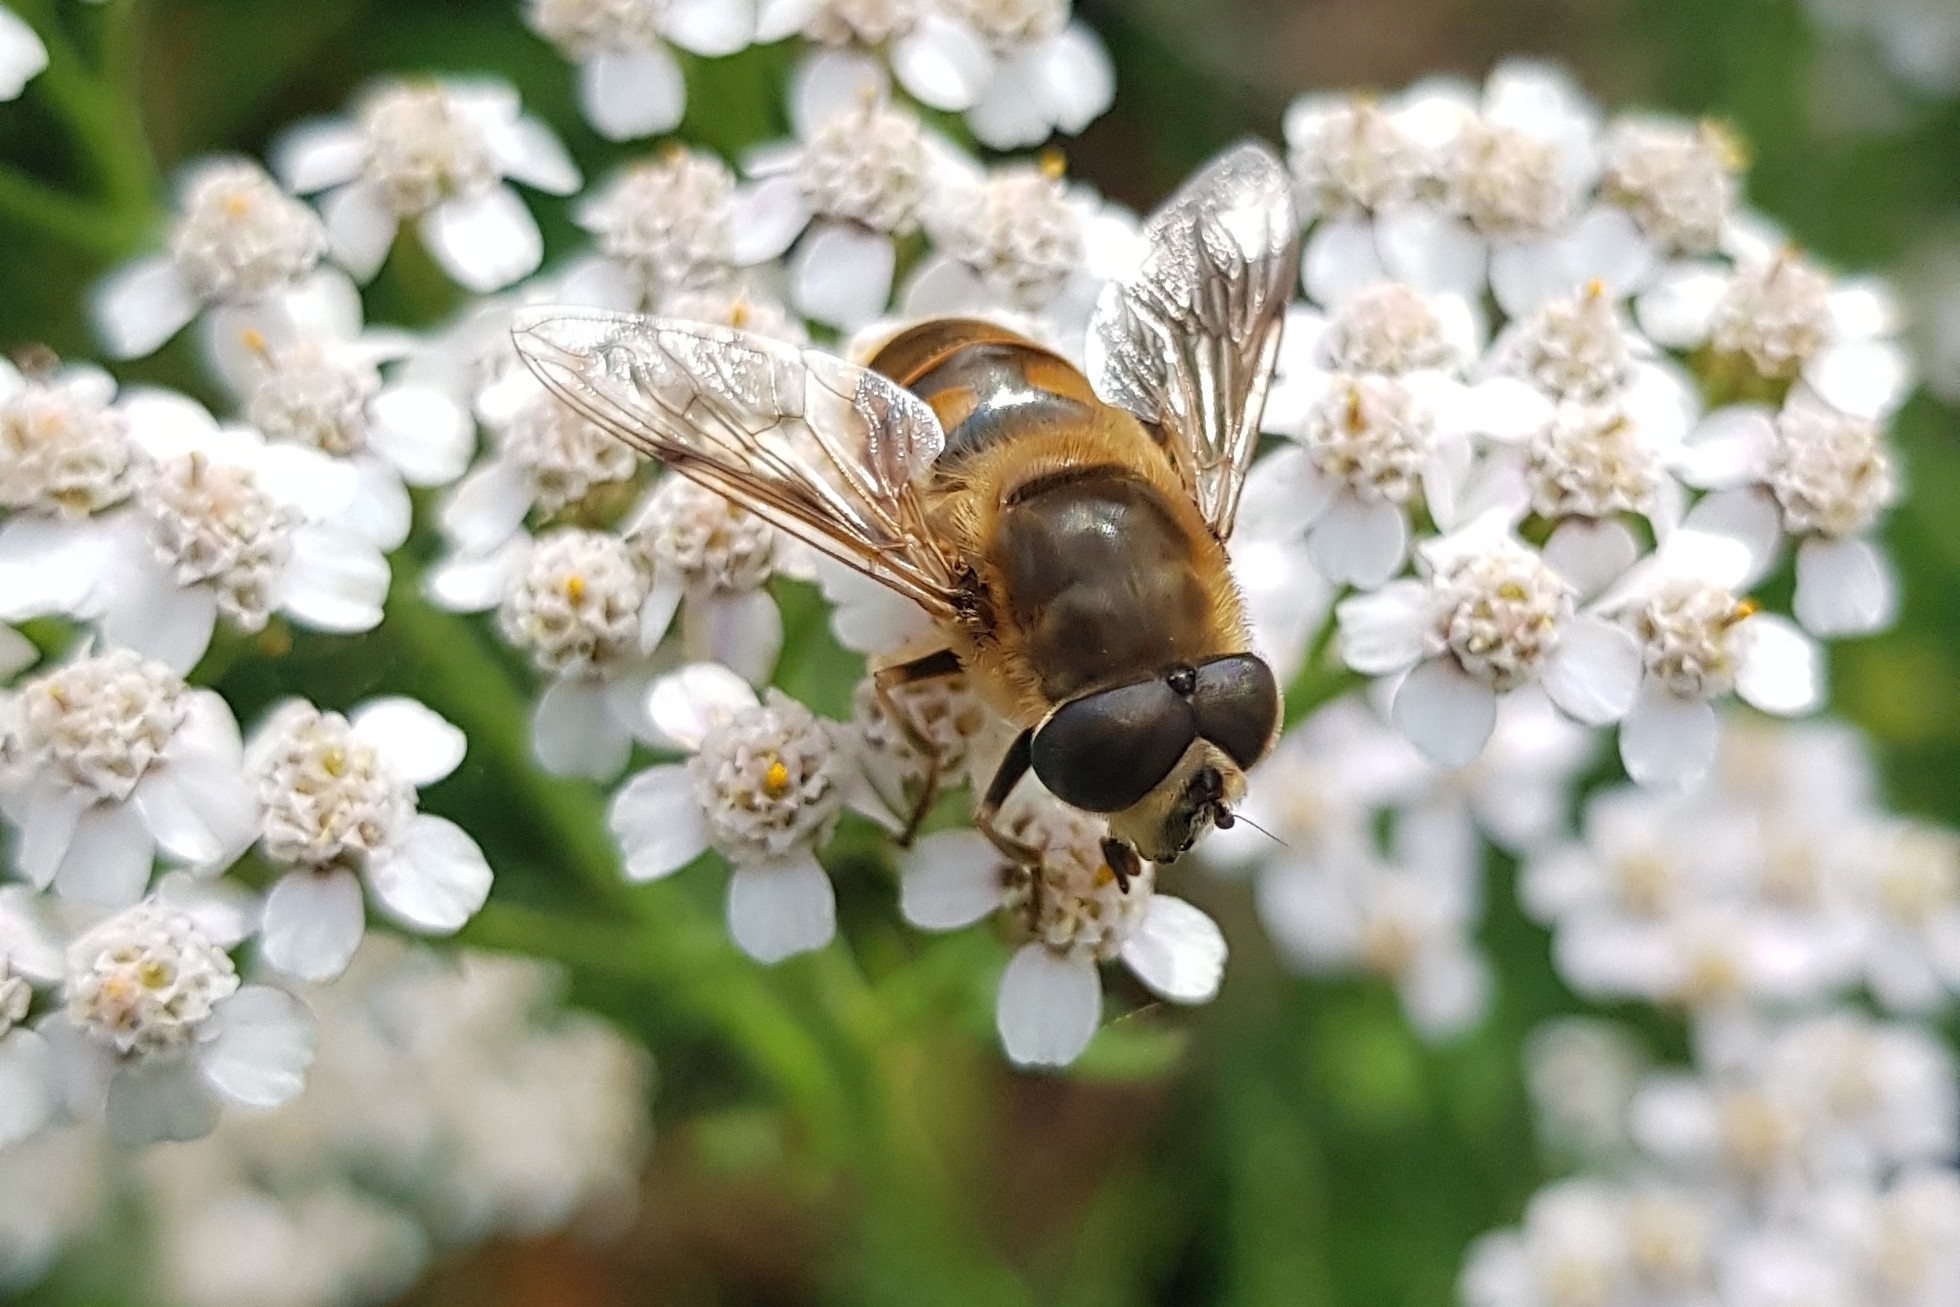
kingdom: Animalia
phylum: Arthropoda
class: Insecta
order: Diptera
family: Syrphidae
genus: Eristalis
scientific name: Eristalis tenax
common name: Drone fly
